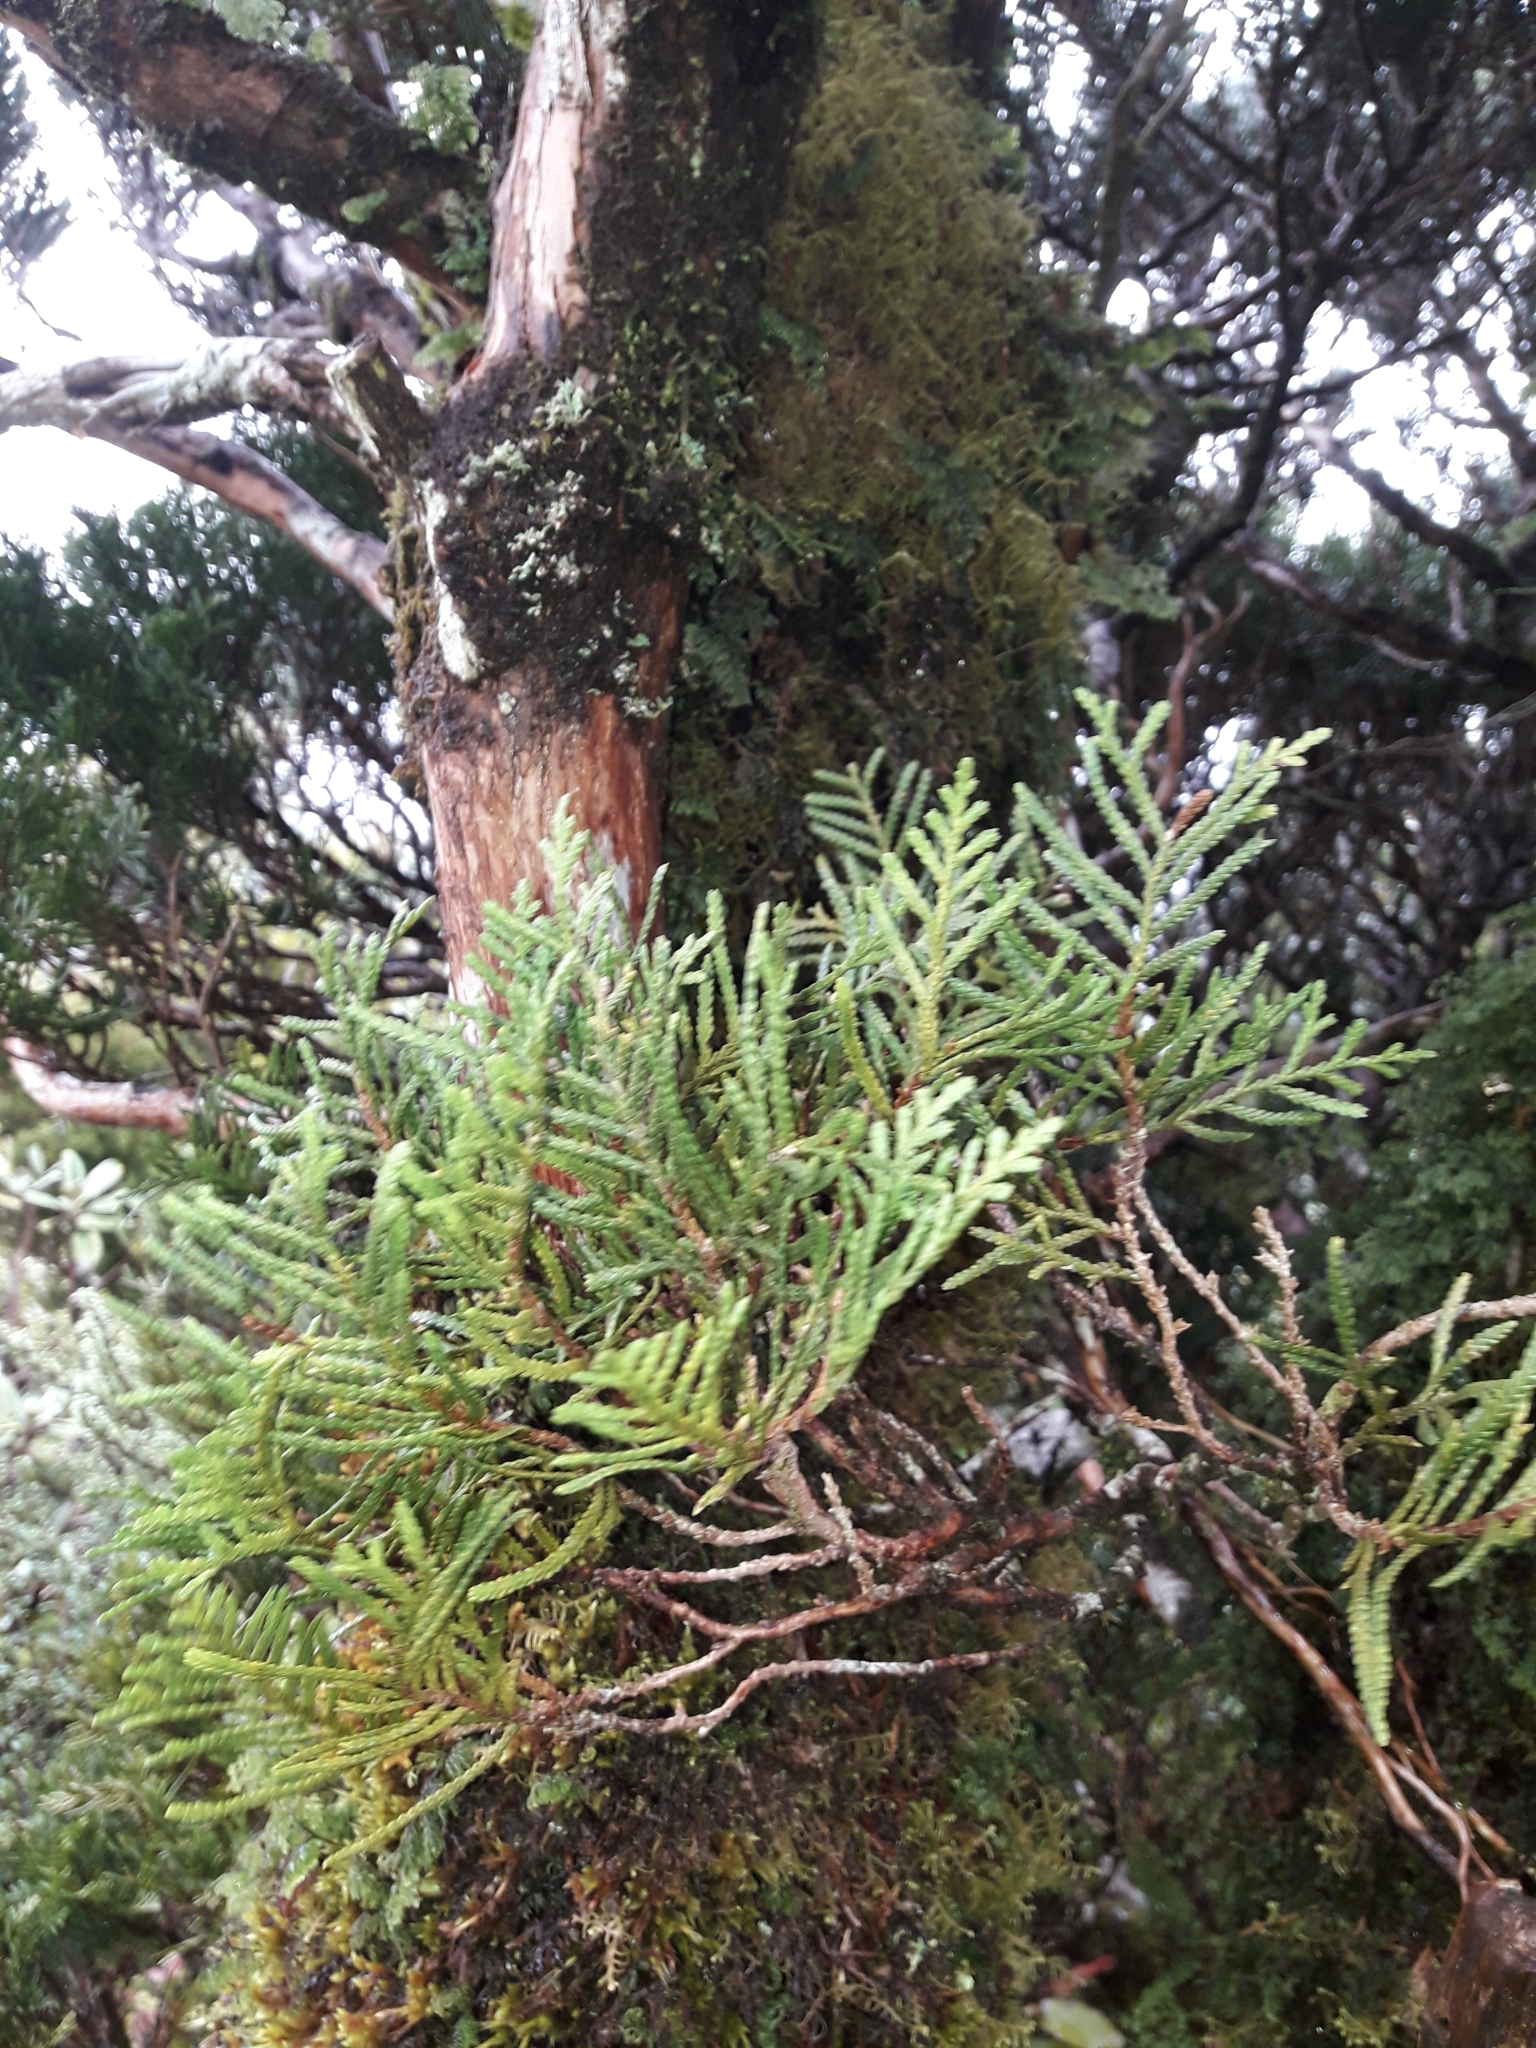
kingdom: Plantae
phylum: Tracheophyta
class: Pinopsida
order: Pinales
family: Cupressaceae
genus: Libocedrus
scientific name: Libocedrus bidwillii
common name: Cedar
